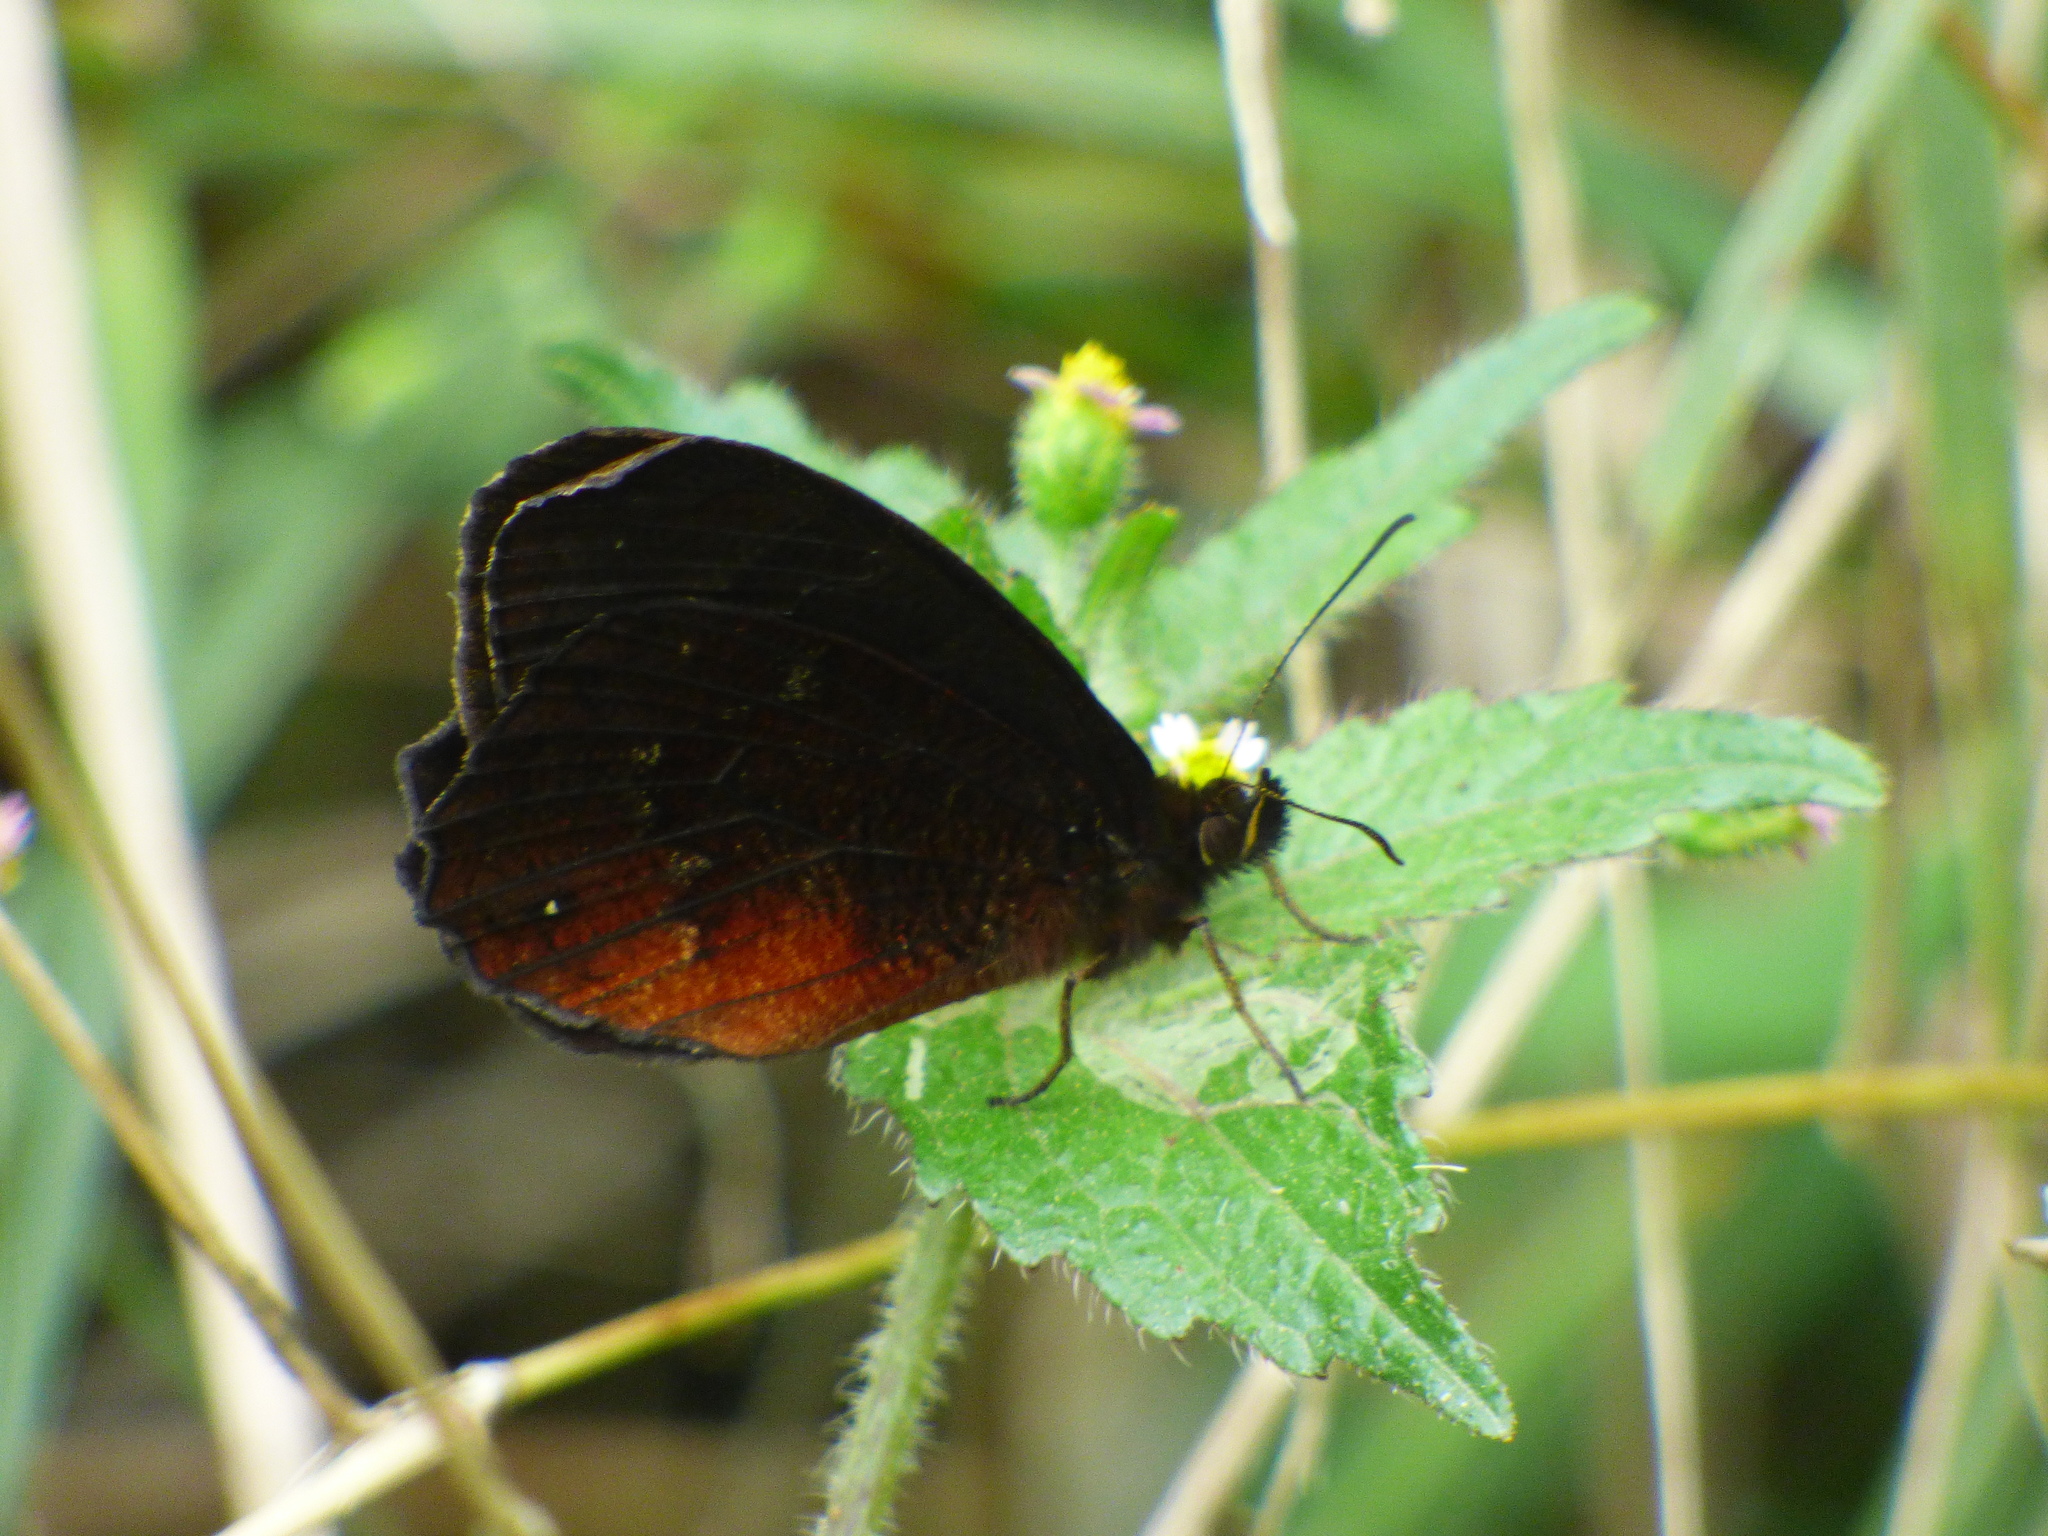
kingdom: Animalia
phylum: Arthropoda
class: Insecta
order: Lepidoptera
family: Nymphalidae
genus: Pedaliodes
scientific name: Pedaliodes
